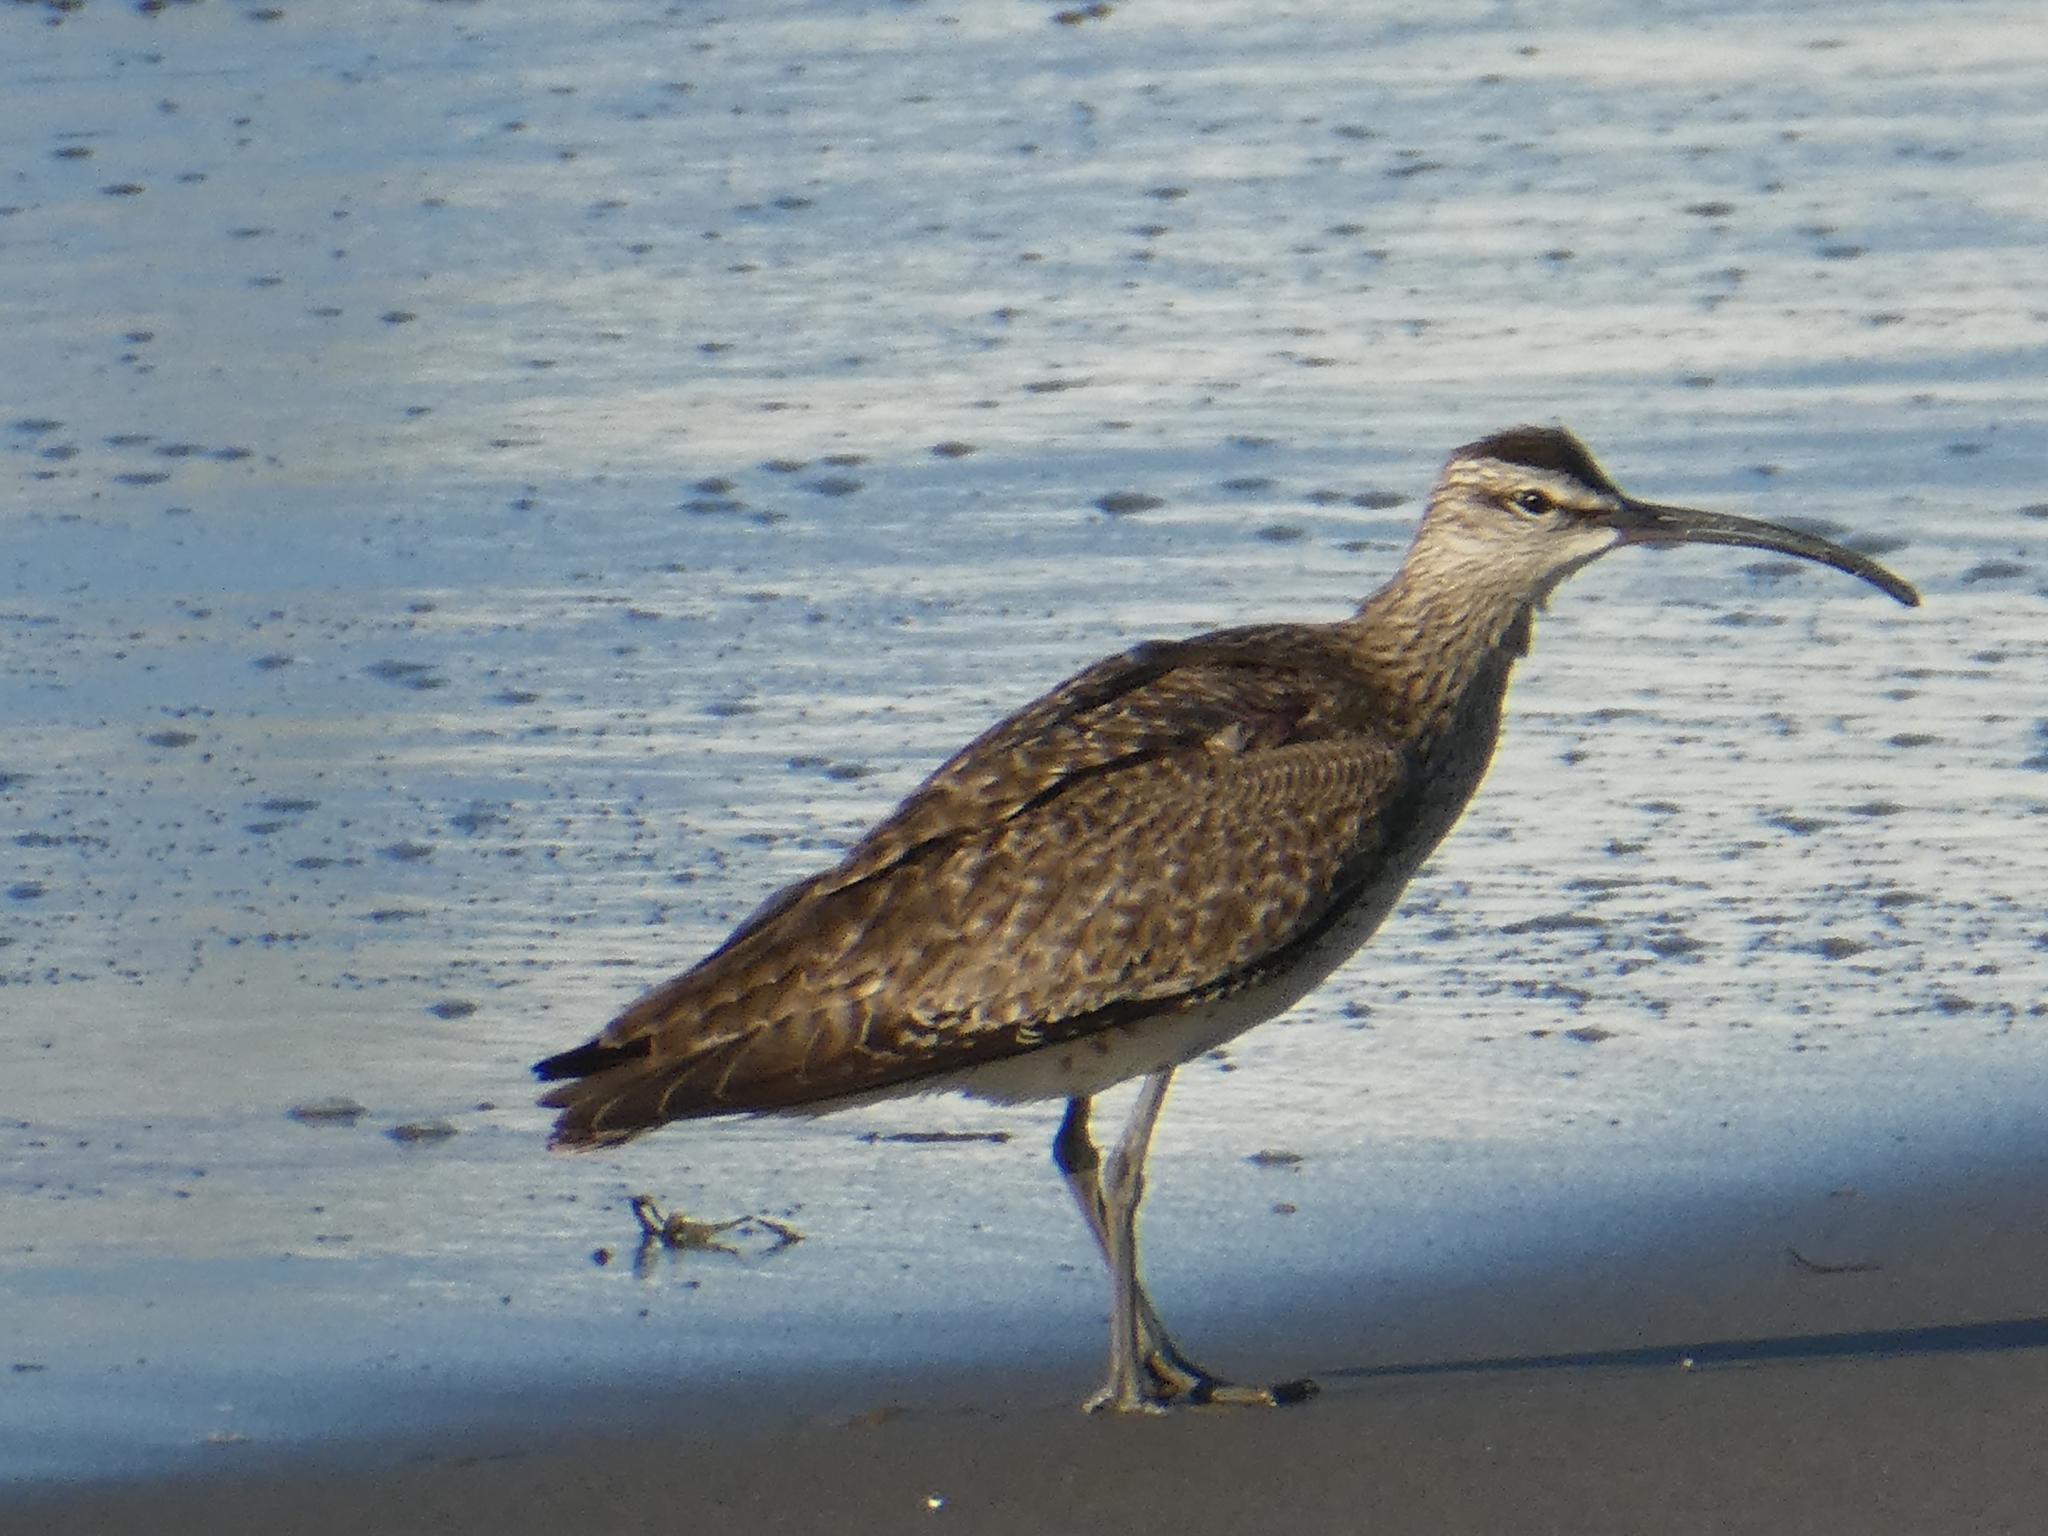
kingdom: Animalia
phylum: Chordata
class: Aves
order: Charadriiformes
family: Scolopacidae
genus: Numenius
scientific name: Numenius phaeopus
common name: Whimbrel
